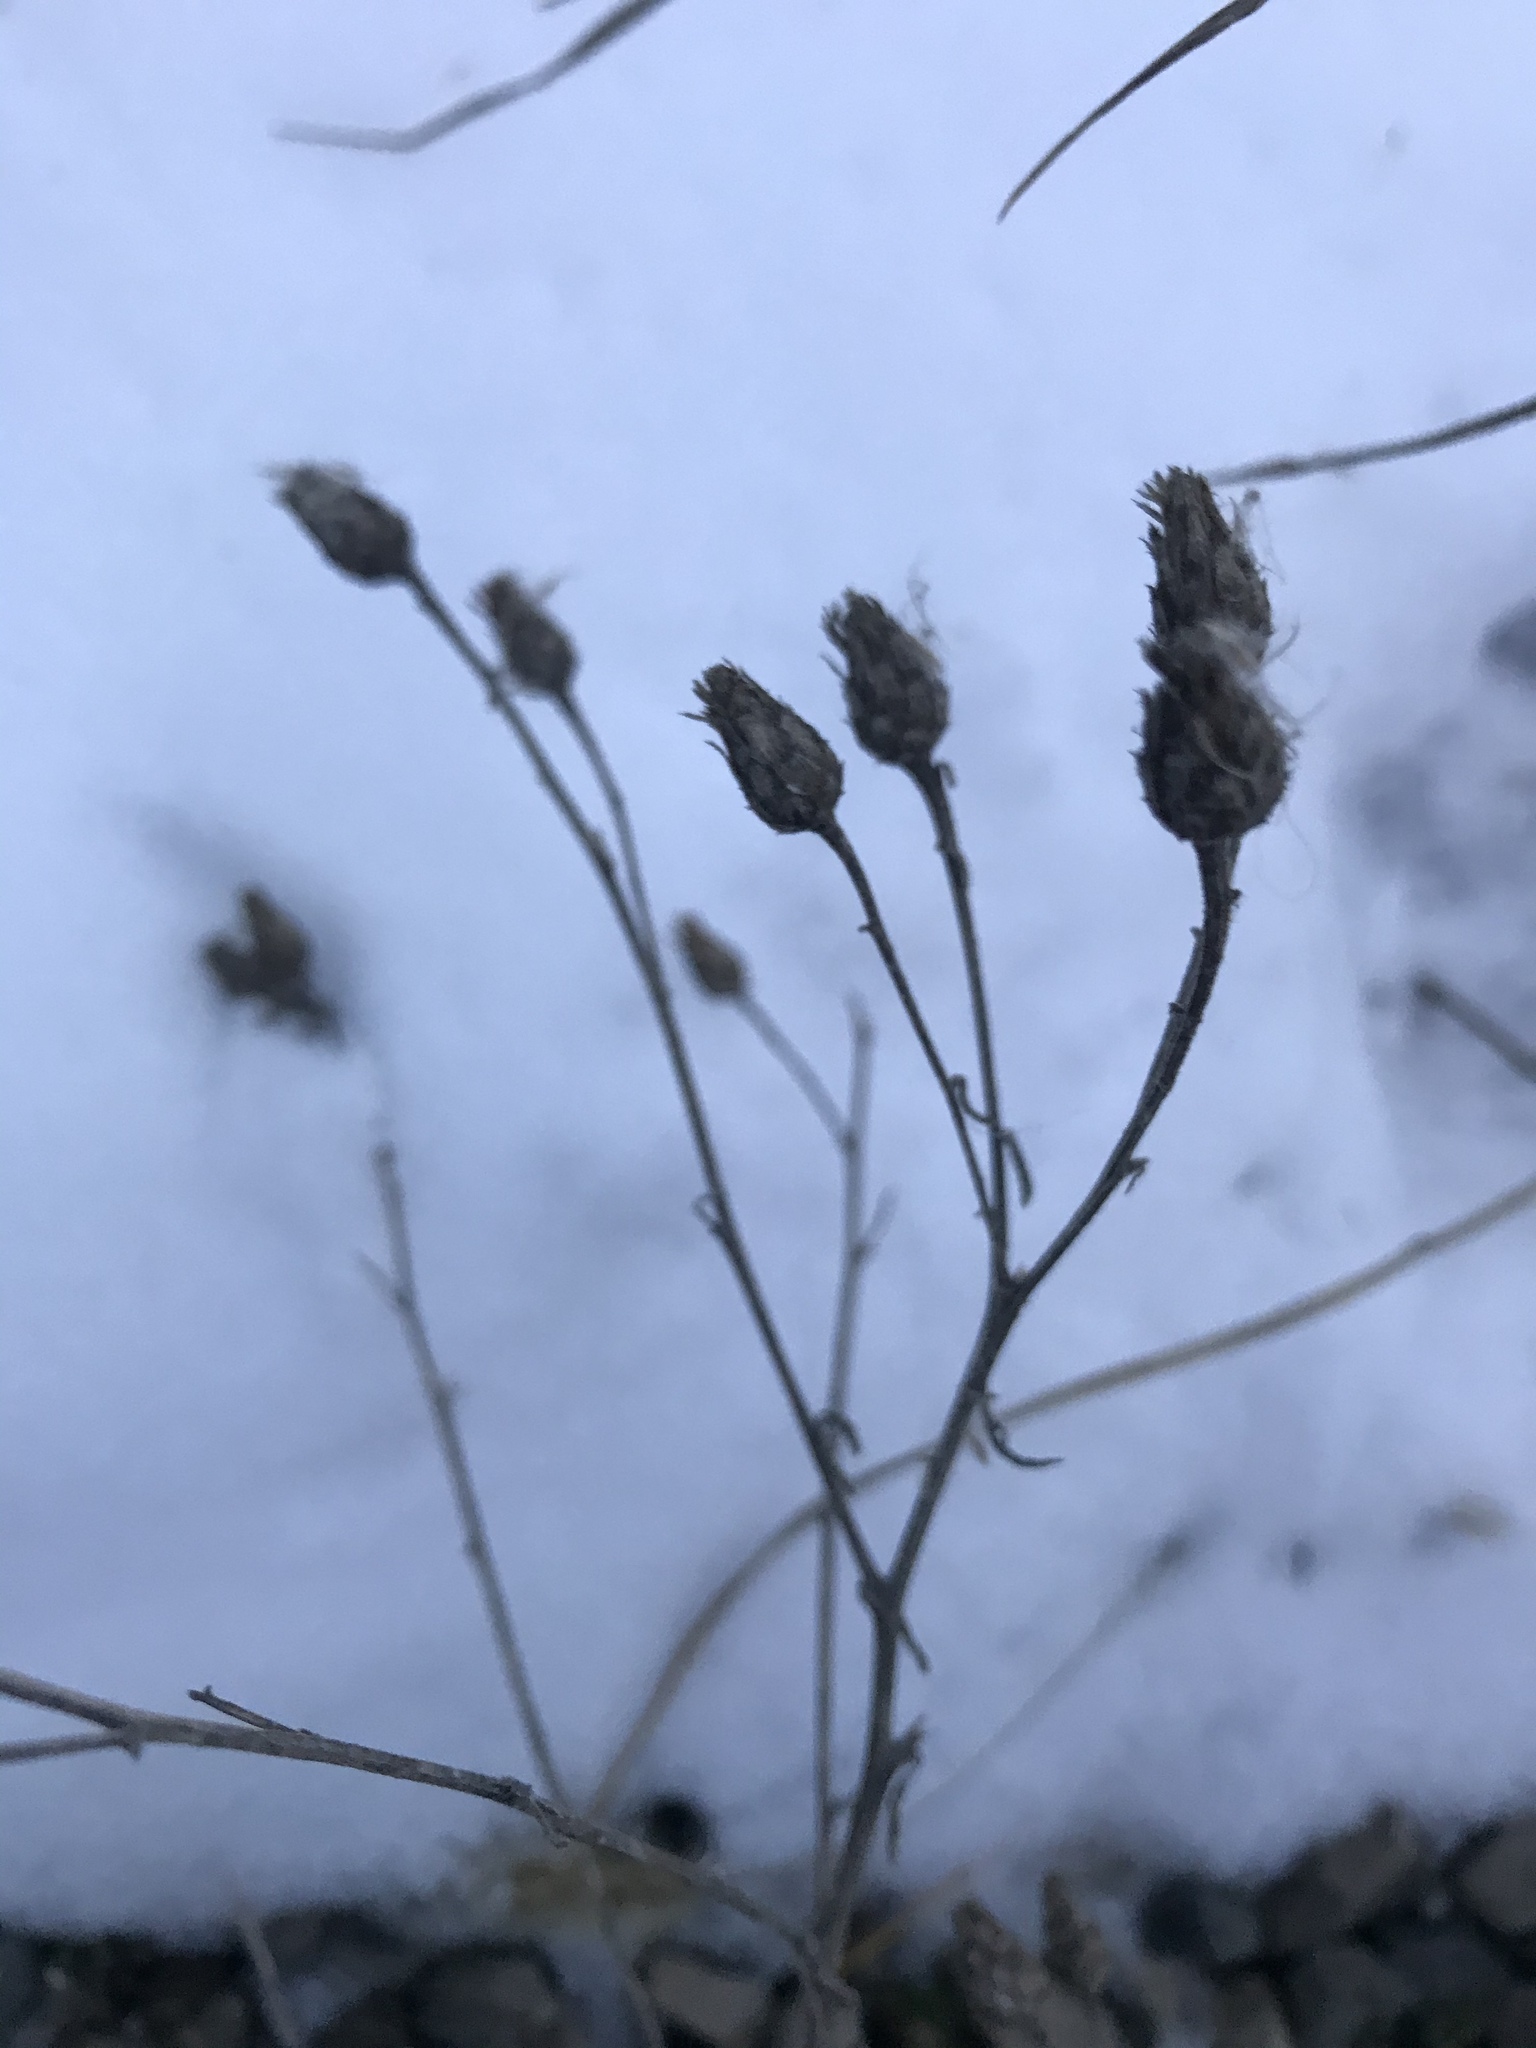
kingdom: Plantae
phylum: Tracheophyta
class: Magnoliopsida
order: Asterales
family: Asteraceae
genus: Centaurea
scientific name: Centaurea stoebe
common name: Spotted knapweed
